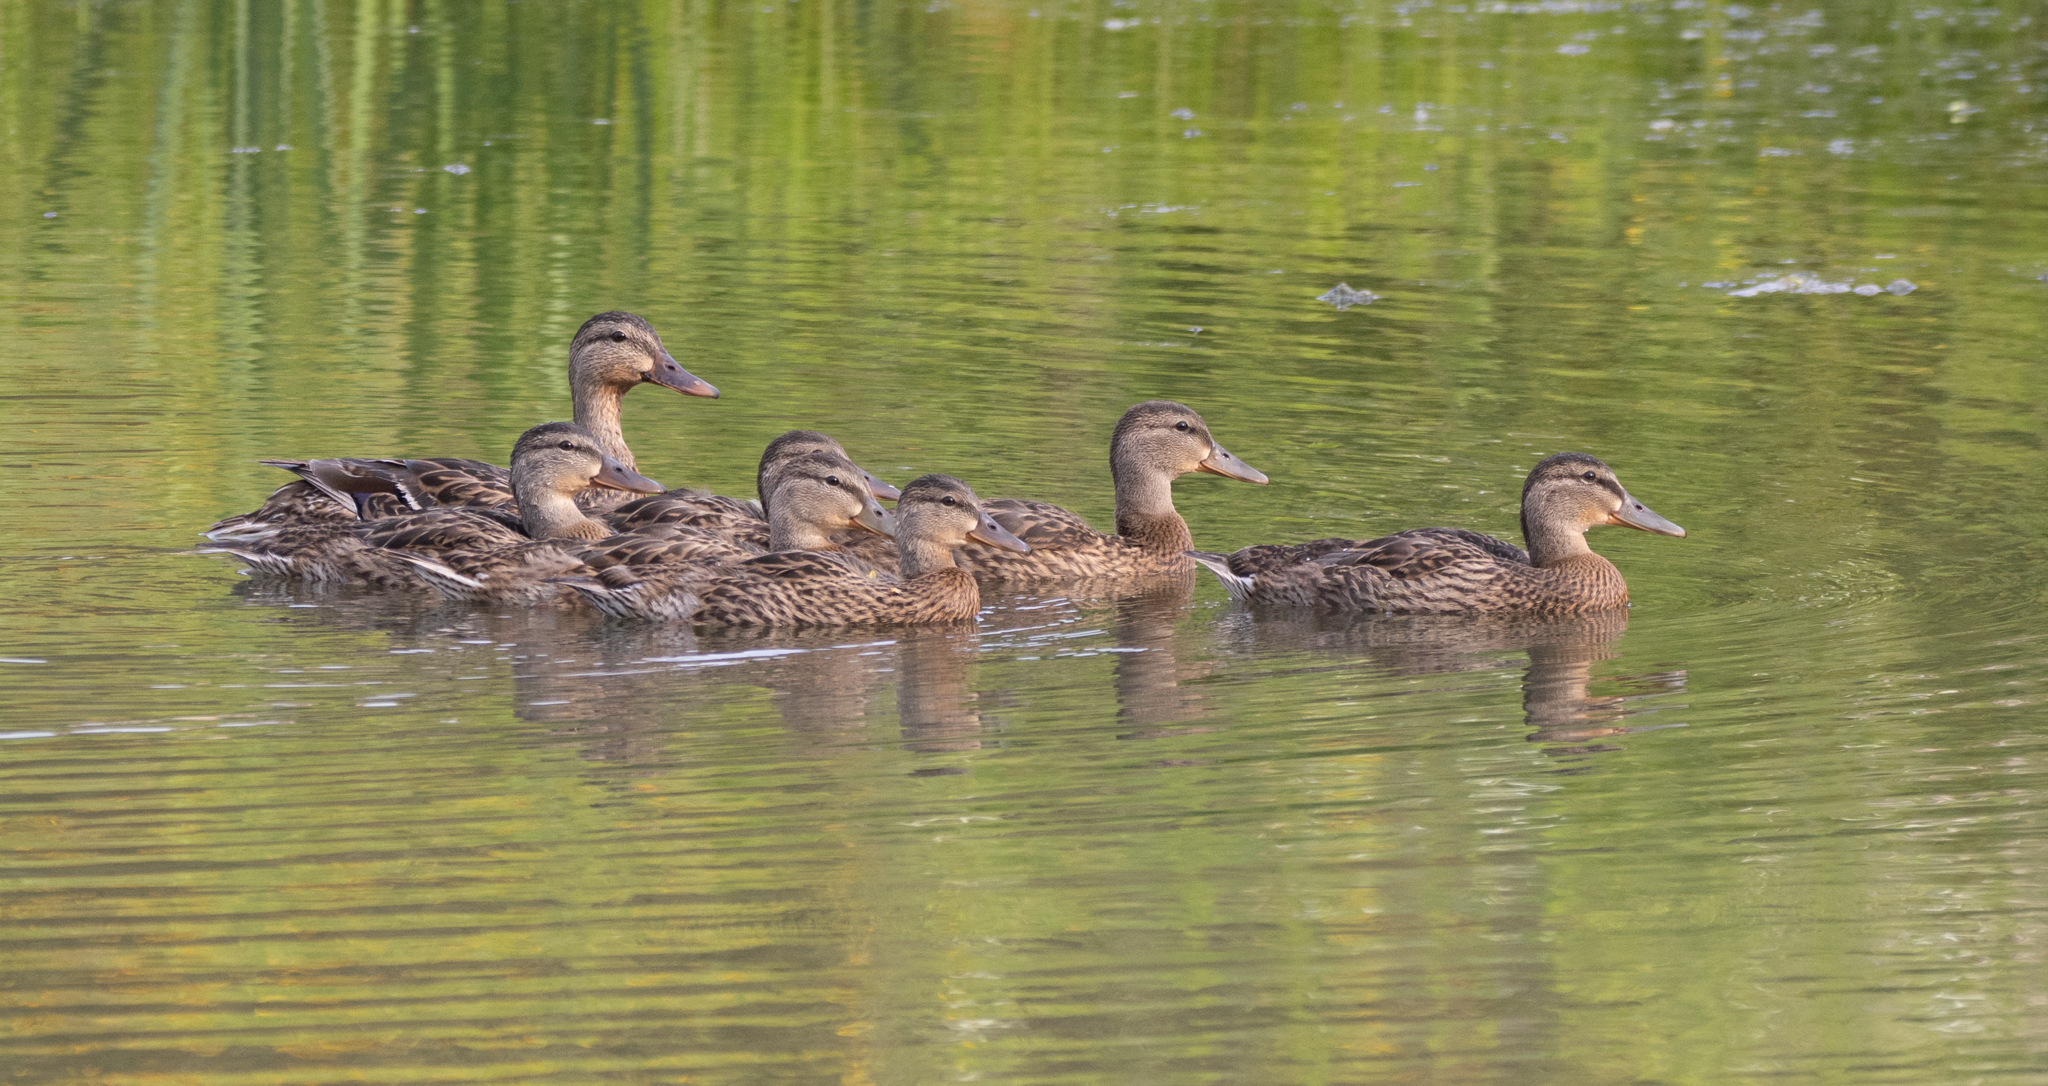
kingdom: Animalia
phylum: Chordata
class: Aves
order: Anseriformes
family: Anatidae
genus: Anas
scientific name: Anas platyrhynchos
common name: Mallard
